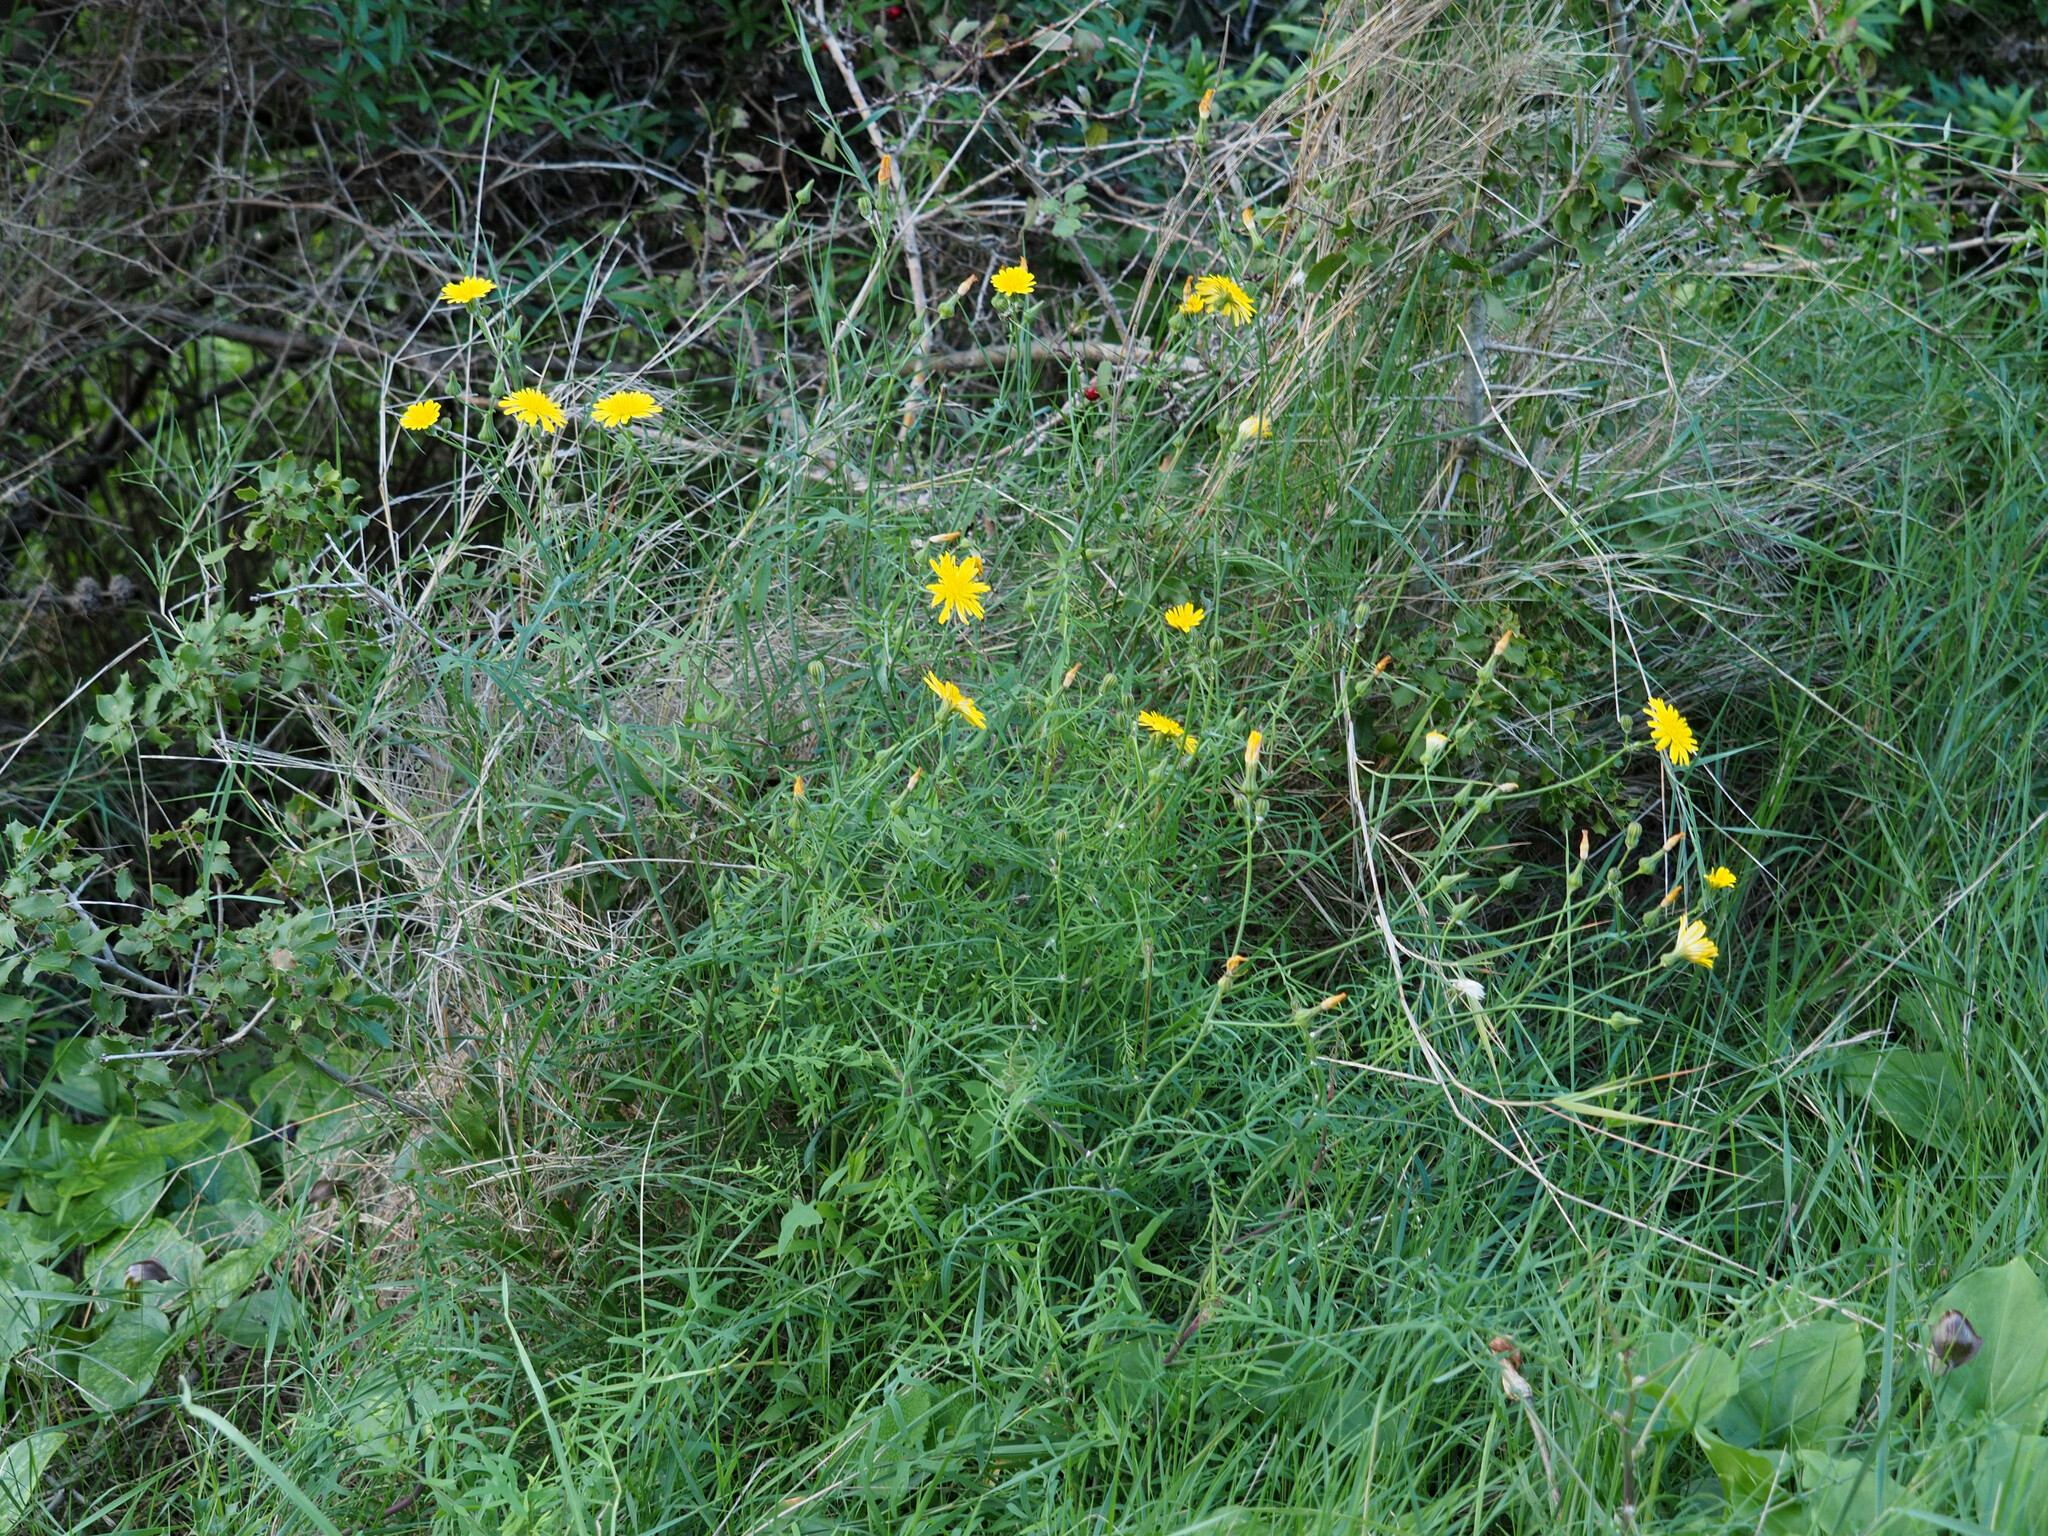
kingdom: Plantae
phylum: Tracheophyta
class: Magnoliopsida
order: Asterales
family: Asteraceae
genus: Sonchus
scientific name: Sonchus tenerrimus
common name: Clammy sowthistle
